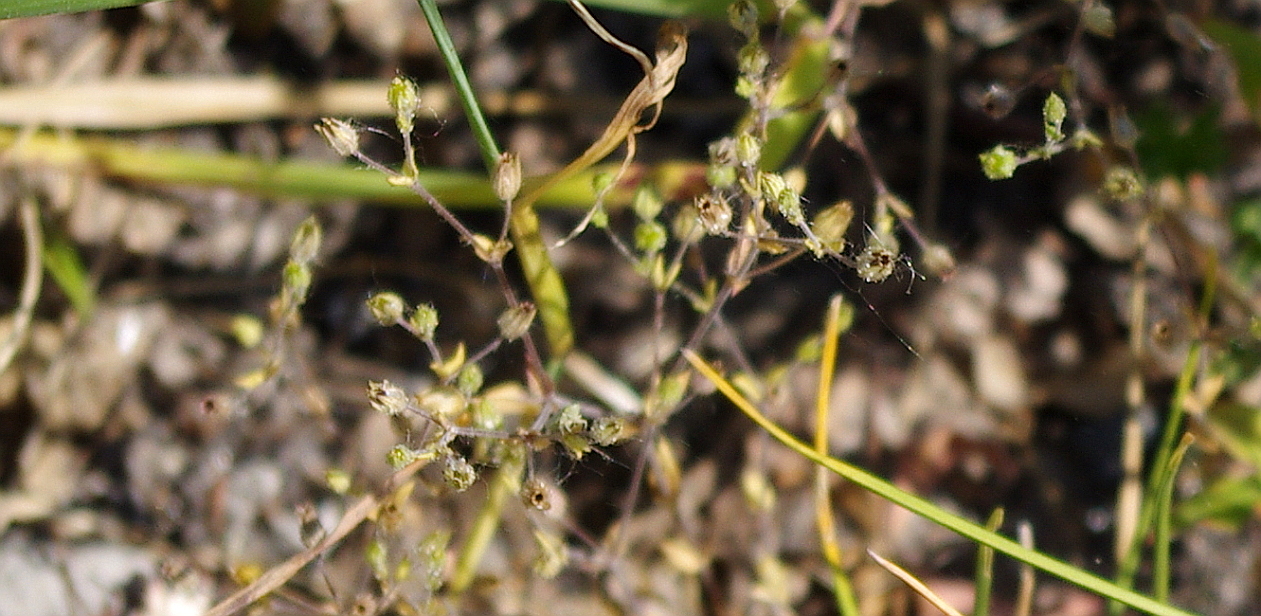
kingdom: Plantae
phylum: Tracheophyta
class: Magnoliopsida
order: Caryophyllales
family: Caryophyllaceae
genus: Arenaria
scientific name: Arenaria serpyllifolia
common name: Thyme-leaved sandwort
